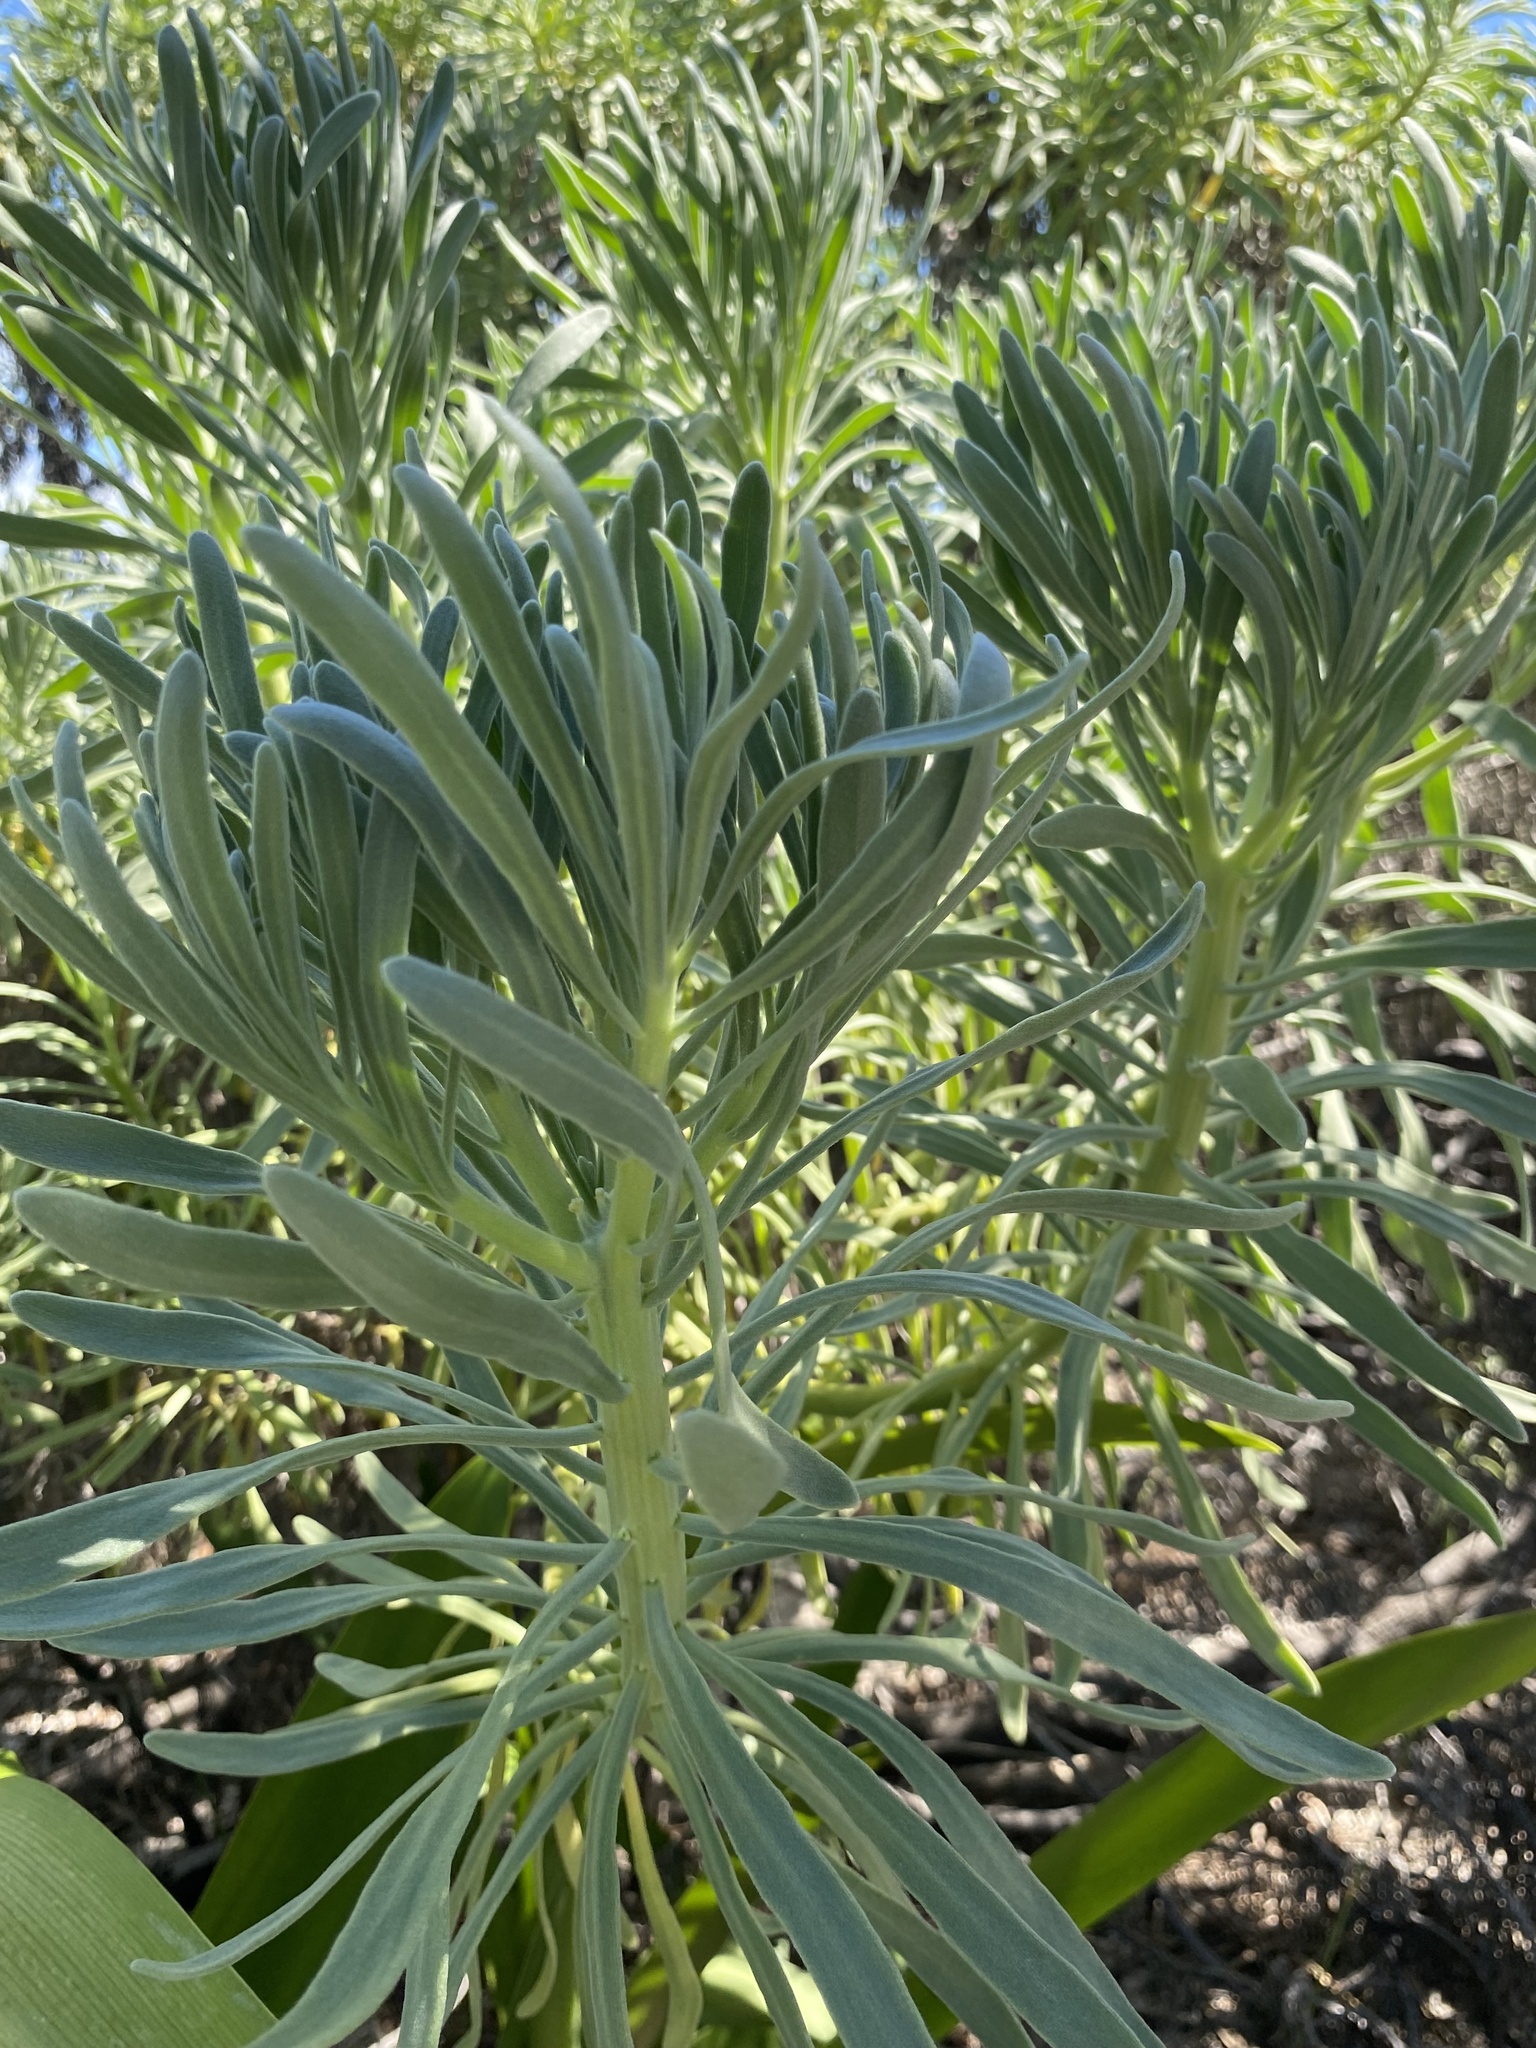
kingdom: Plantae
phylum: Tracheophyta
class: Magnoliopsida
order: Boraginales
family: Heliotropiaceae
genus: Tournefortia
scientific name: Tournefortia gnaphalodes
